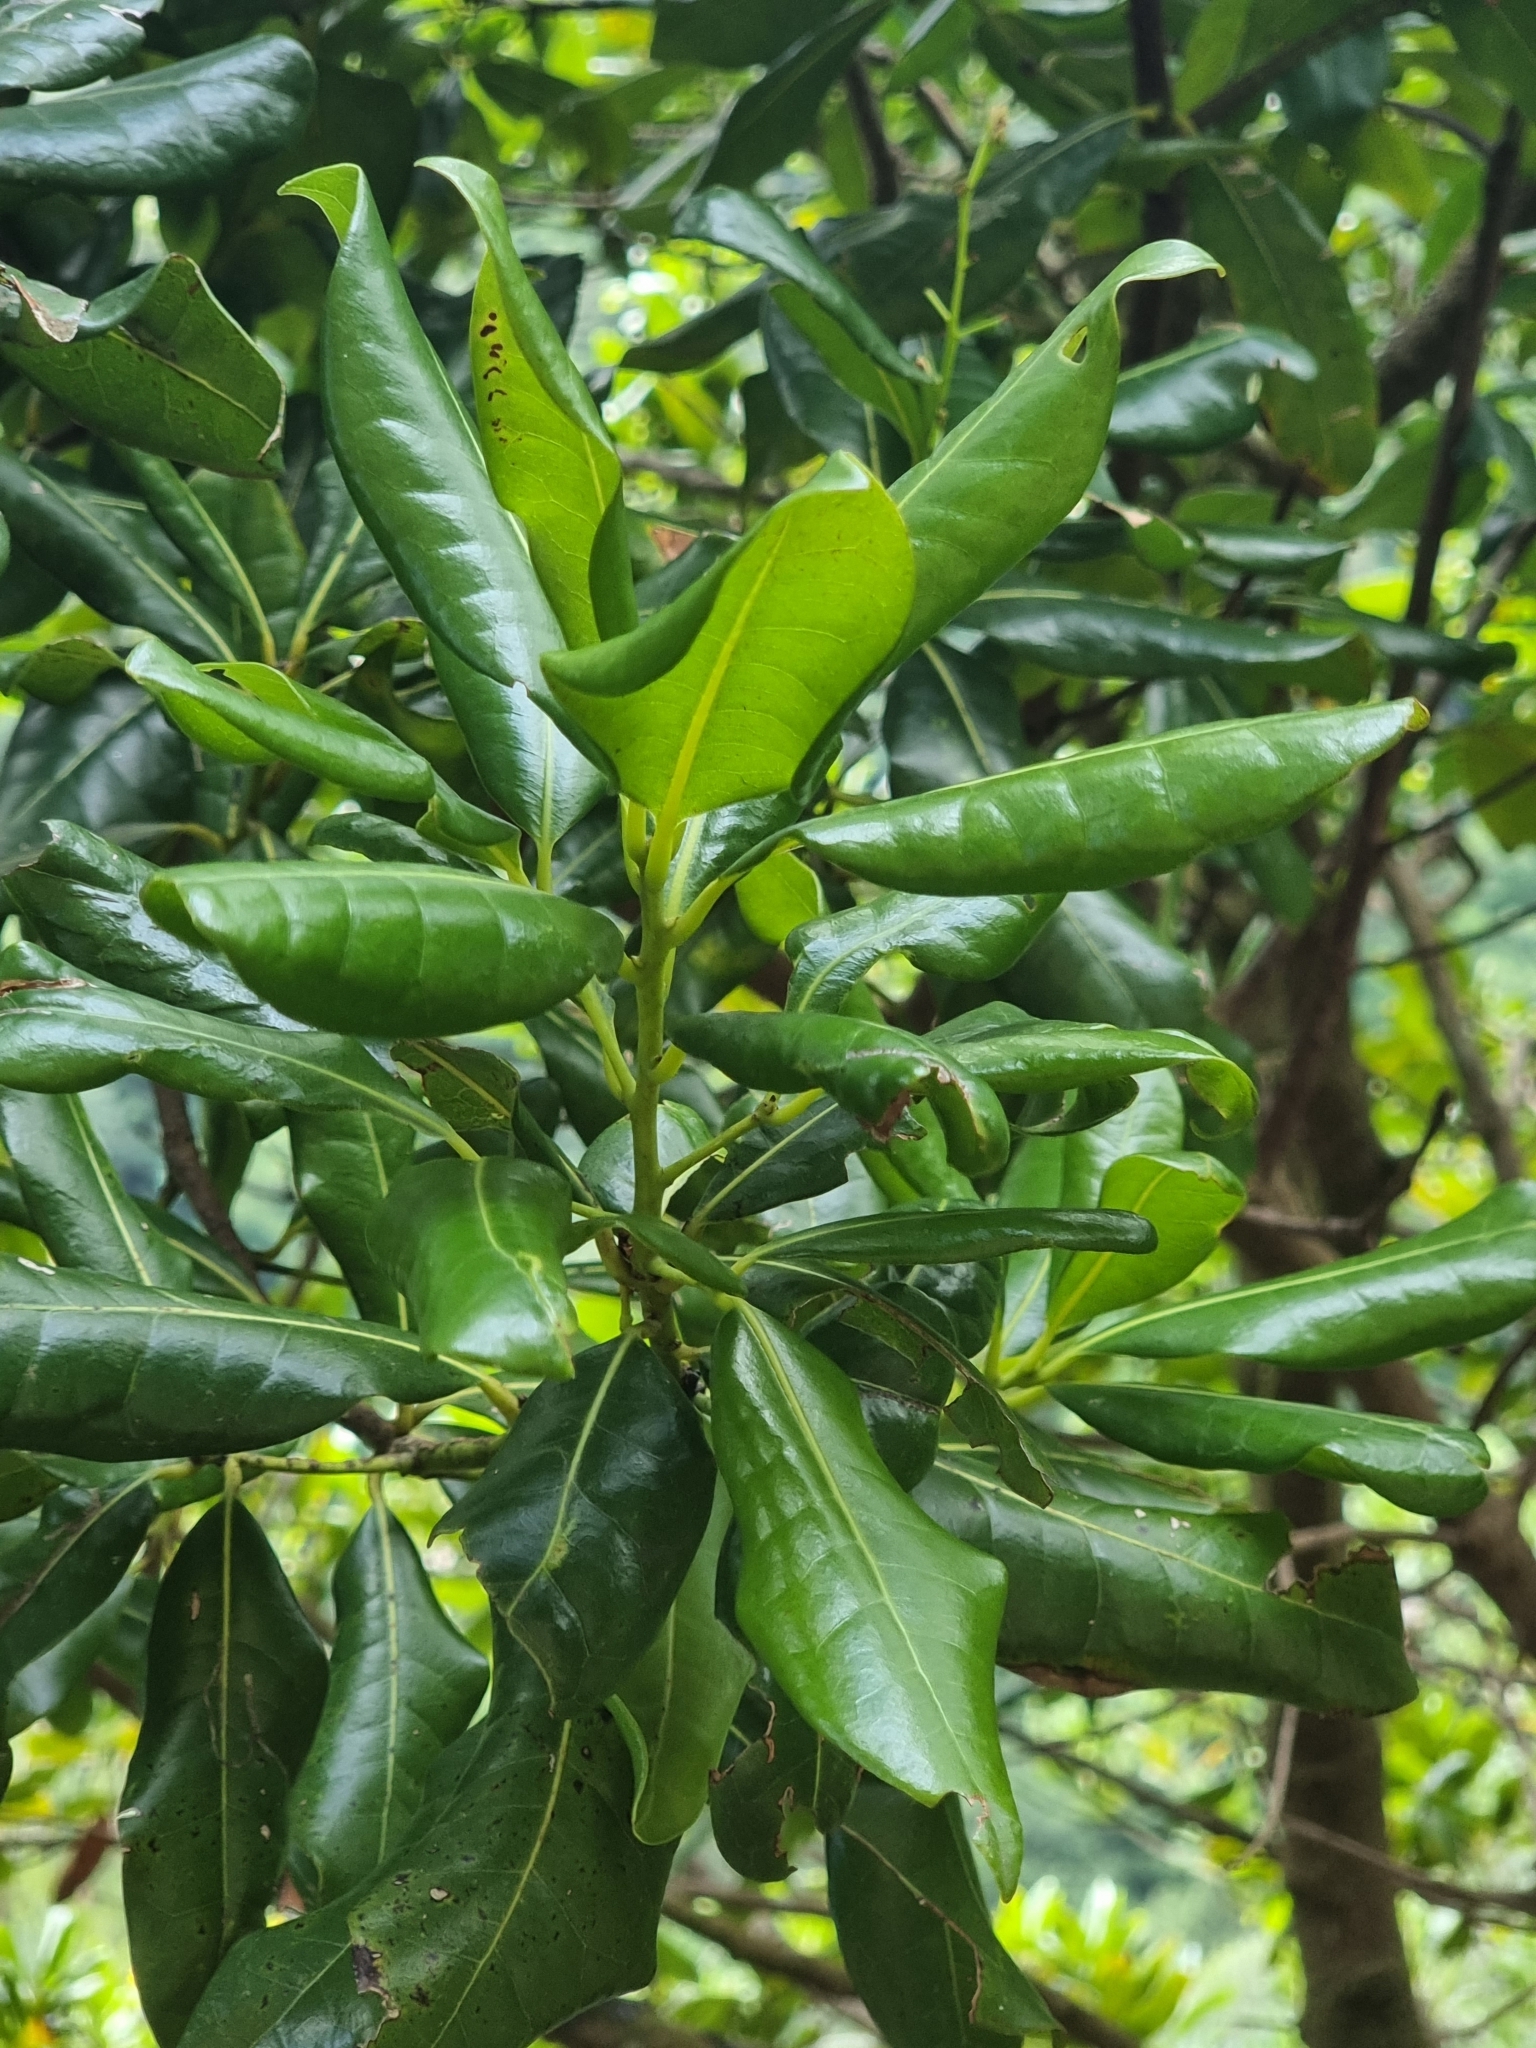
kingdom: Plantae
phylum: Tracheophyta
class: Magnoliopsida
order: Laurales
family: Lauraceae
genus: Apollonias
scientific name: Apollonias barbujana
